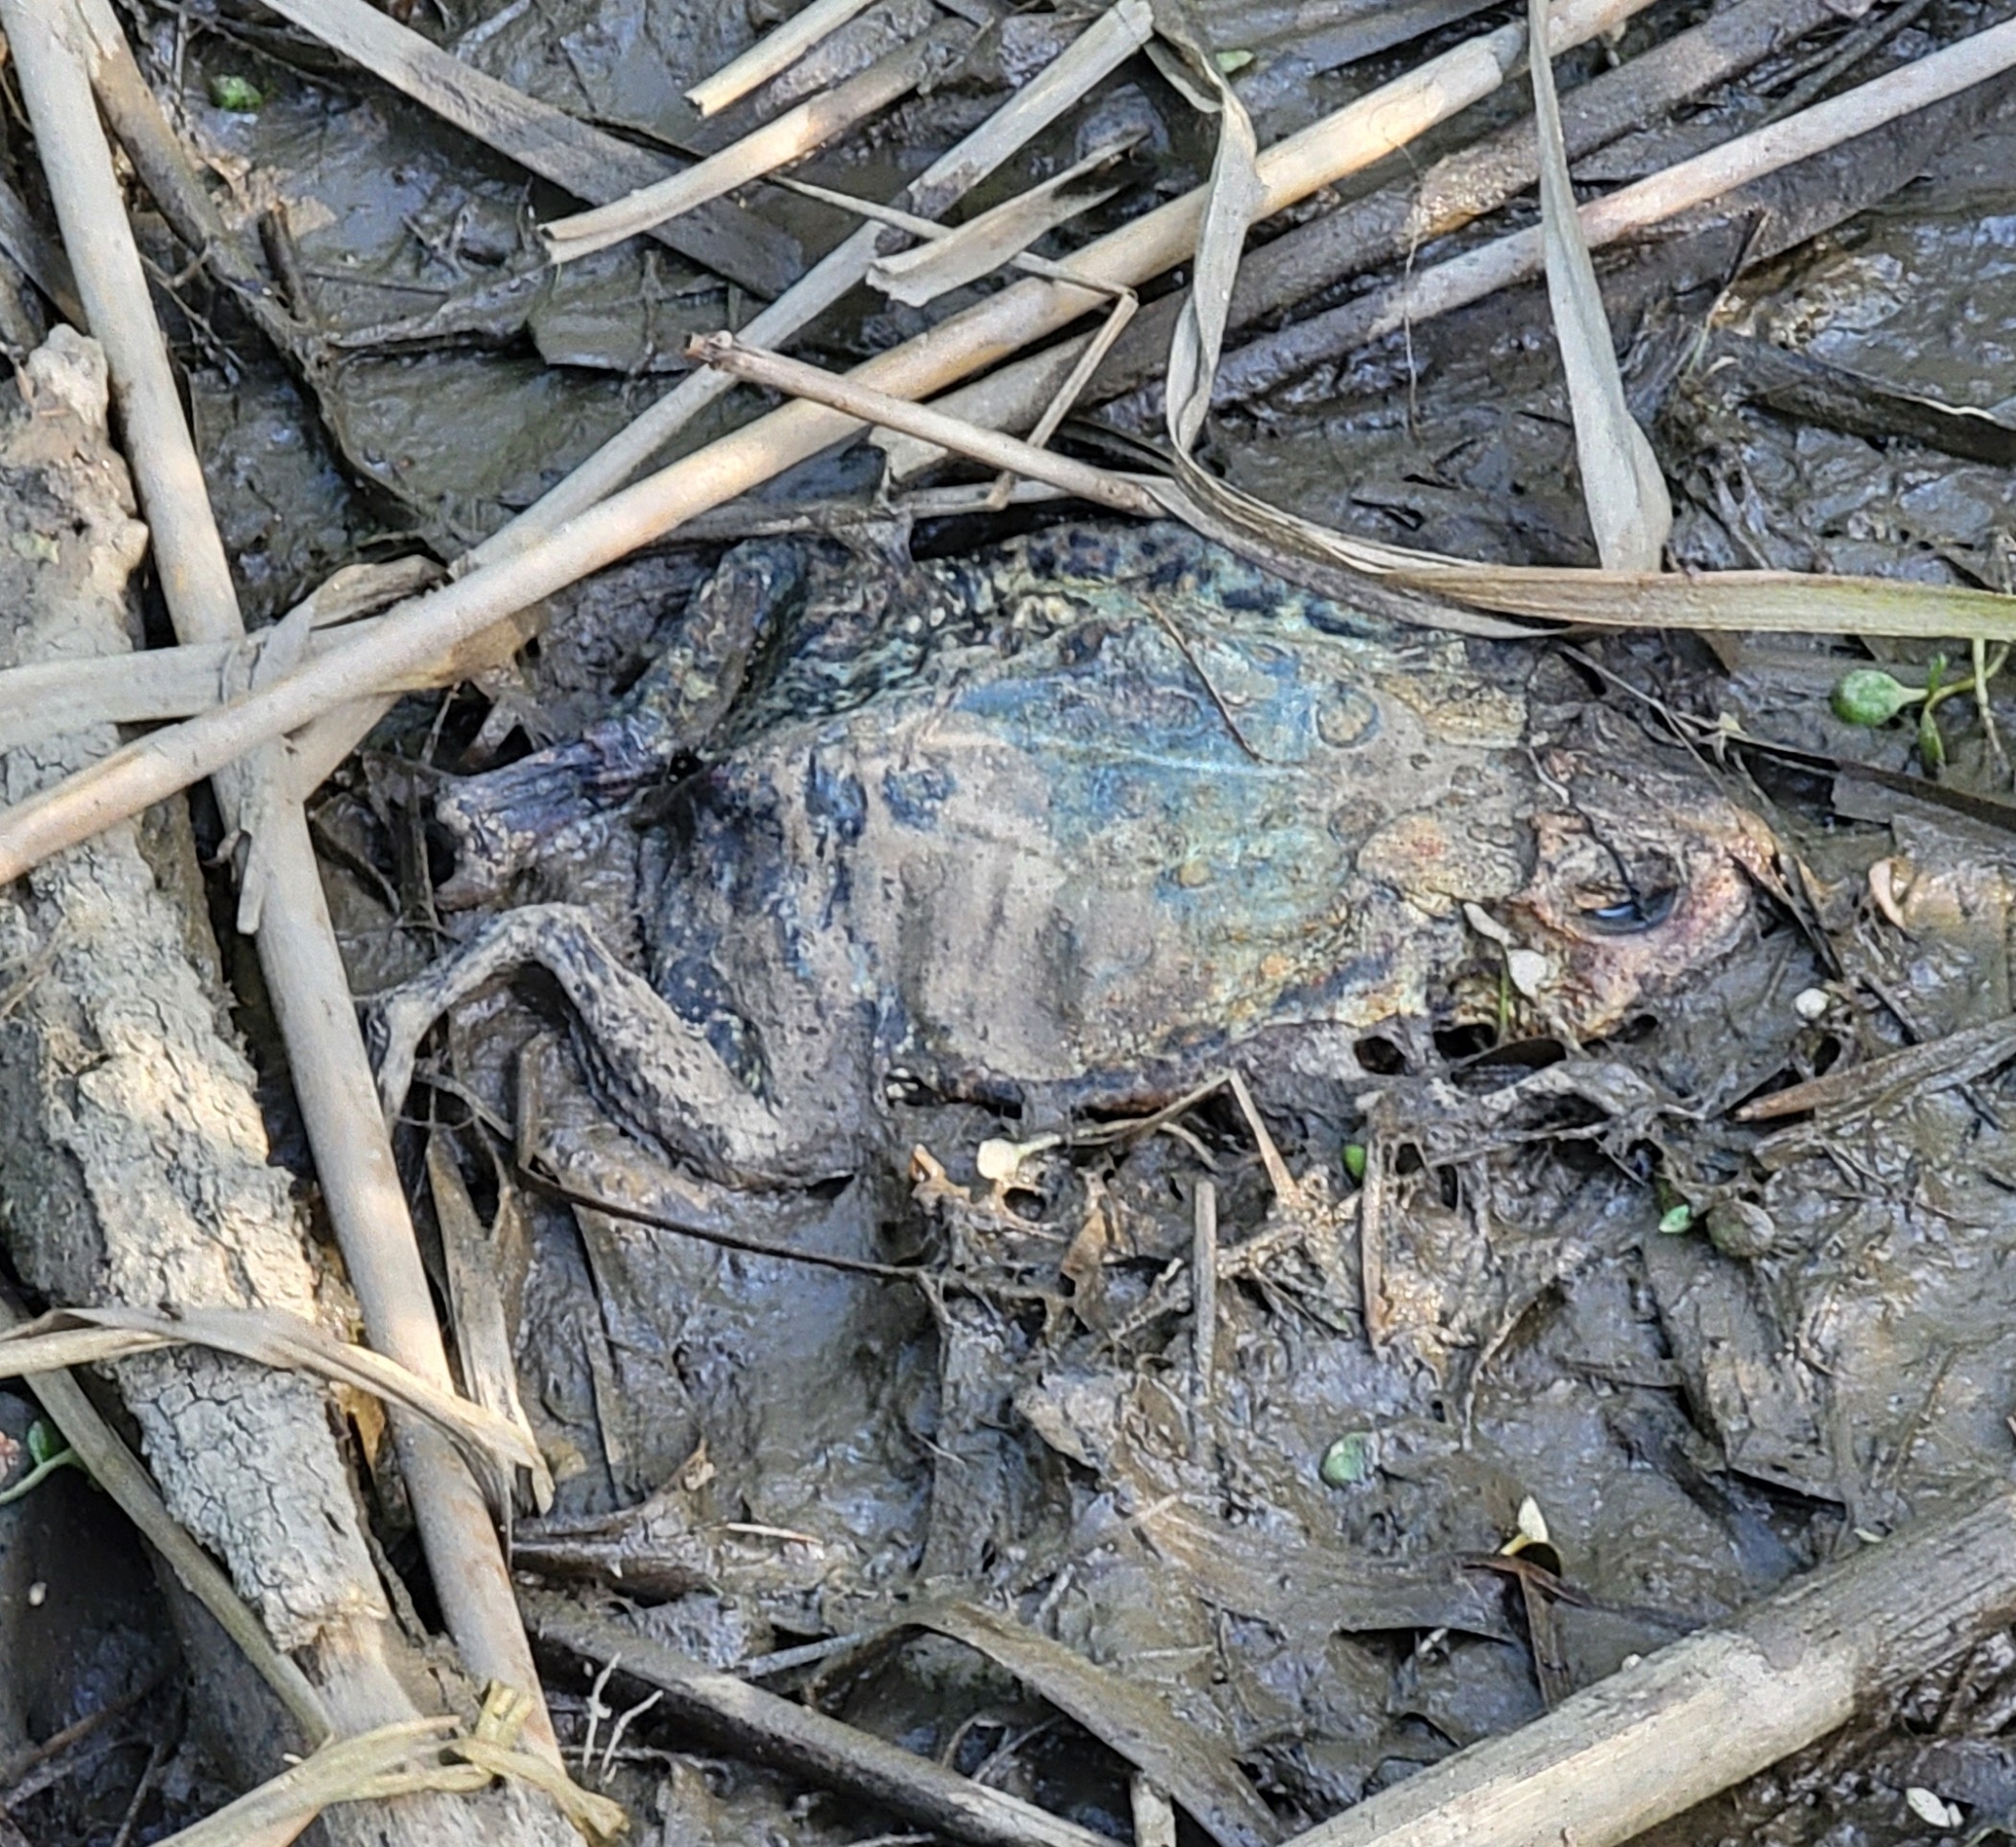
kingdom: Animalia
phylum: Chordata
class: Amphibia
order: Anura
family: Bufonidae
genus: Anaxyrus
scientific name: Anaxyrus americanus
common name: American toad
